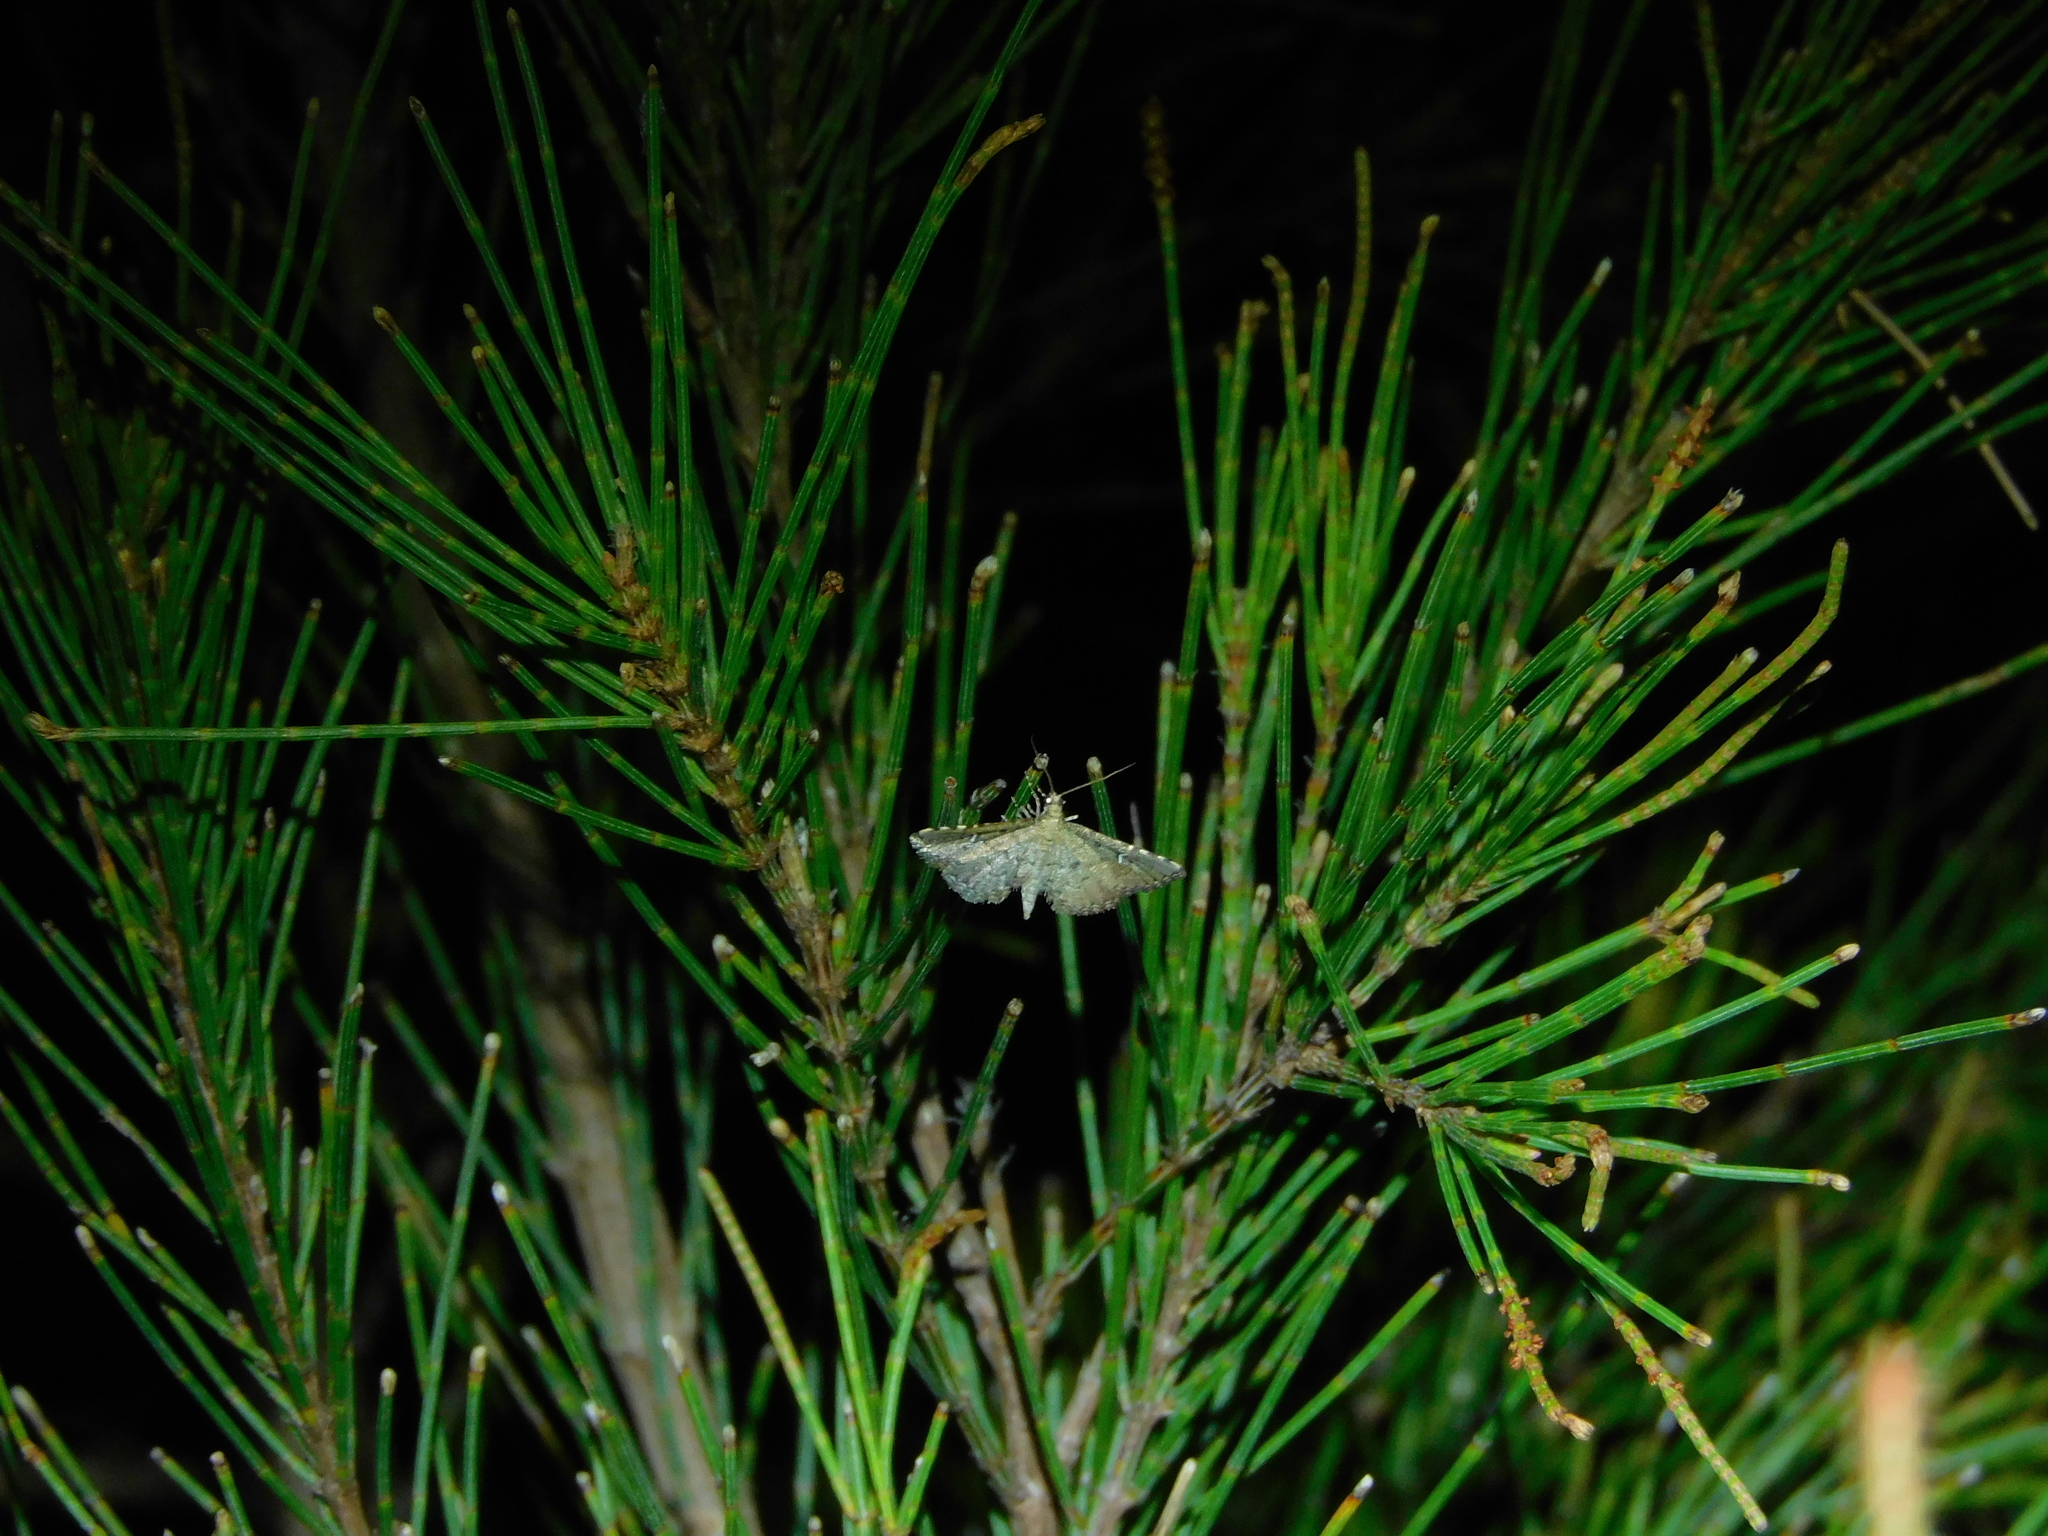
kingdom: Animalia
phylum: Arthropoda
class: Insecta
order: Lepidoptera
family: Crambidae
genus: Metasia
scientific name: Metasia capnochroa
